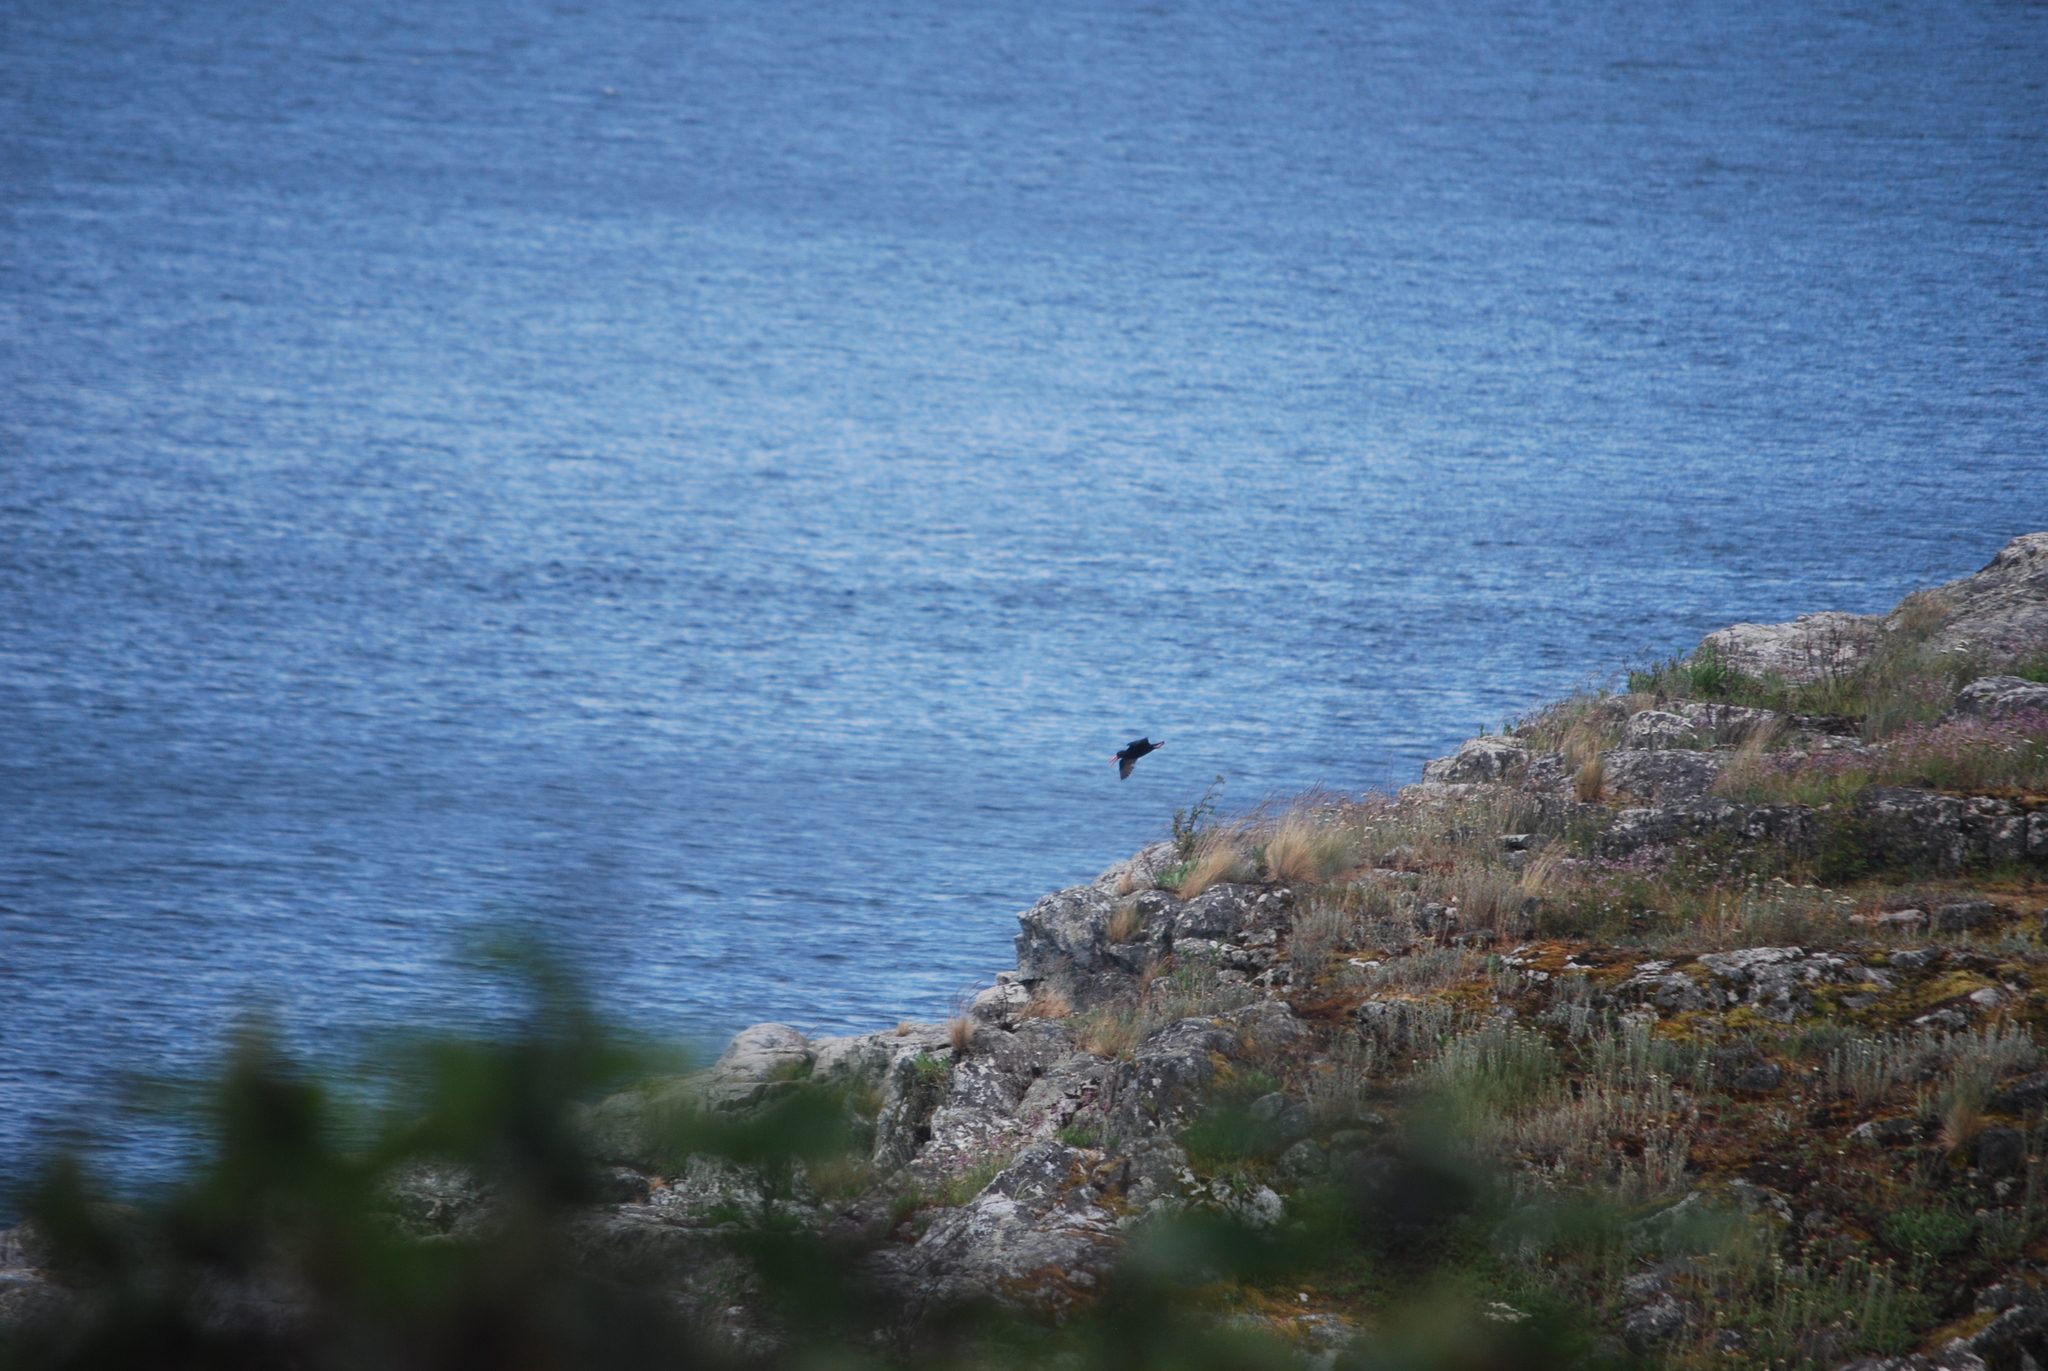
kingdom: Animalia
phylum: Chordata
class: Aves
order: Charadriiformes
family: Haematopodidae
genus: Haematopus
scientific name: Haematopus bachmani
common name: Black oystercatcher
